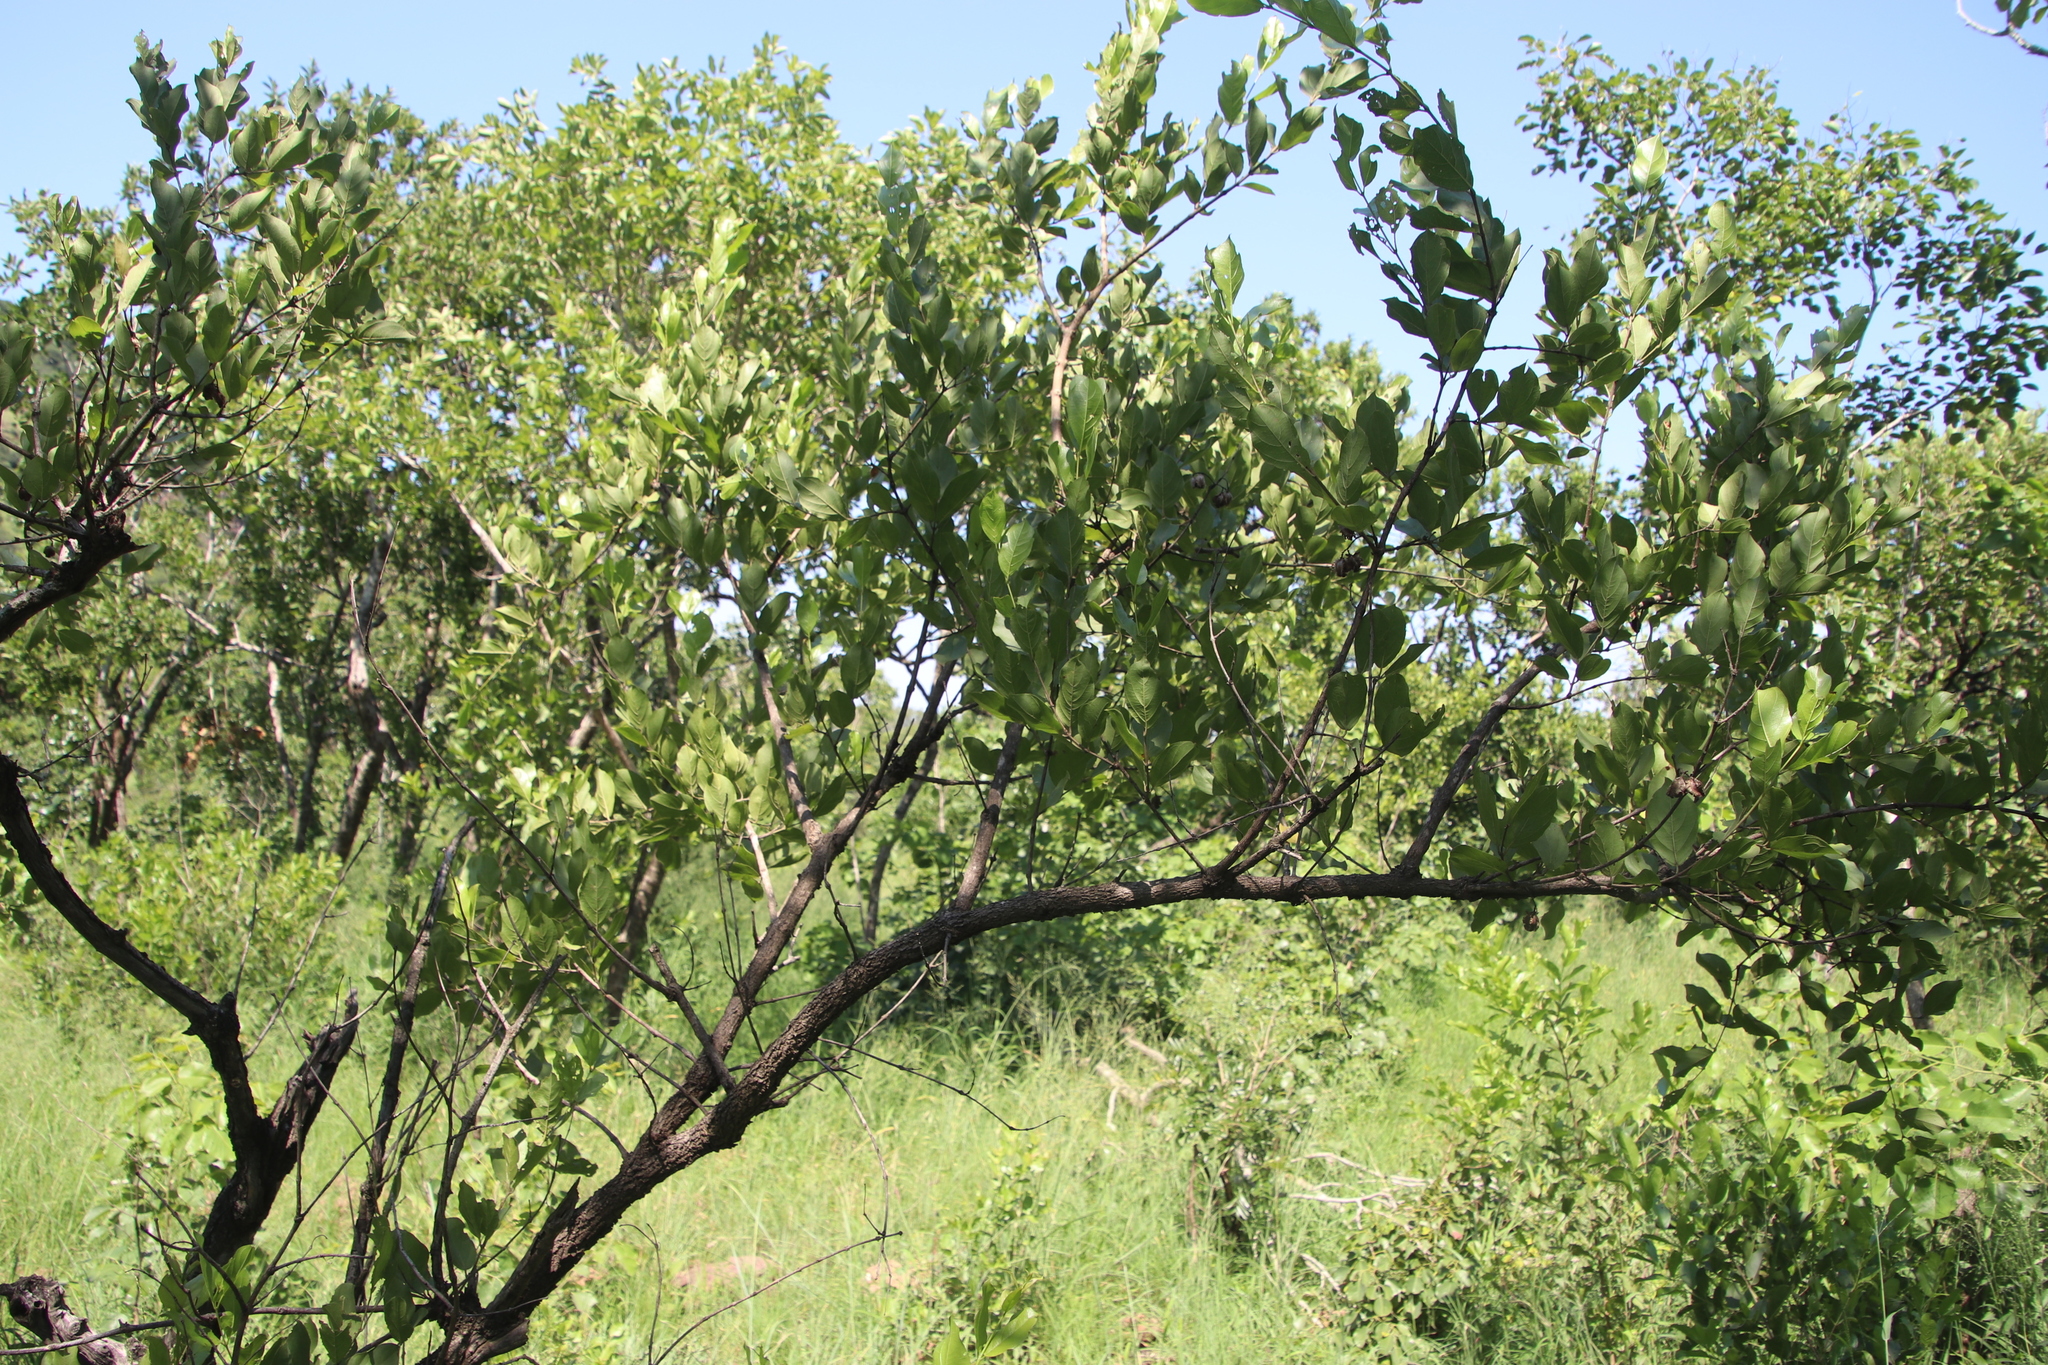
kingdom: Plantae
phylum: Tracheophyta
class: Magnoliopsida
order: Myrtales
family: Combretaceae
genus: Combretum
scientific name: Combretum apiculatum
